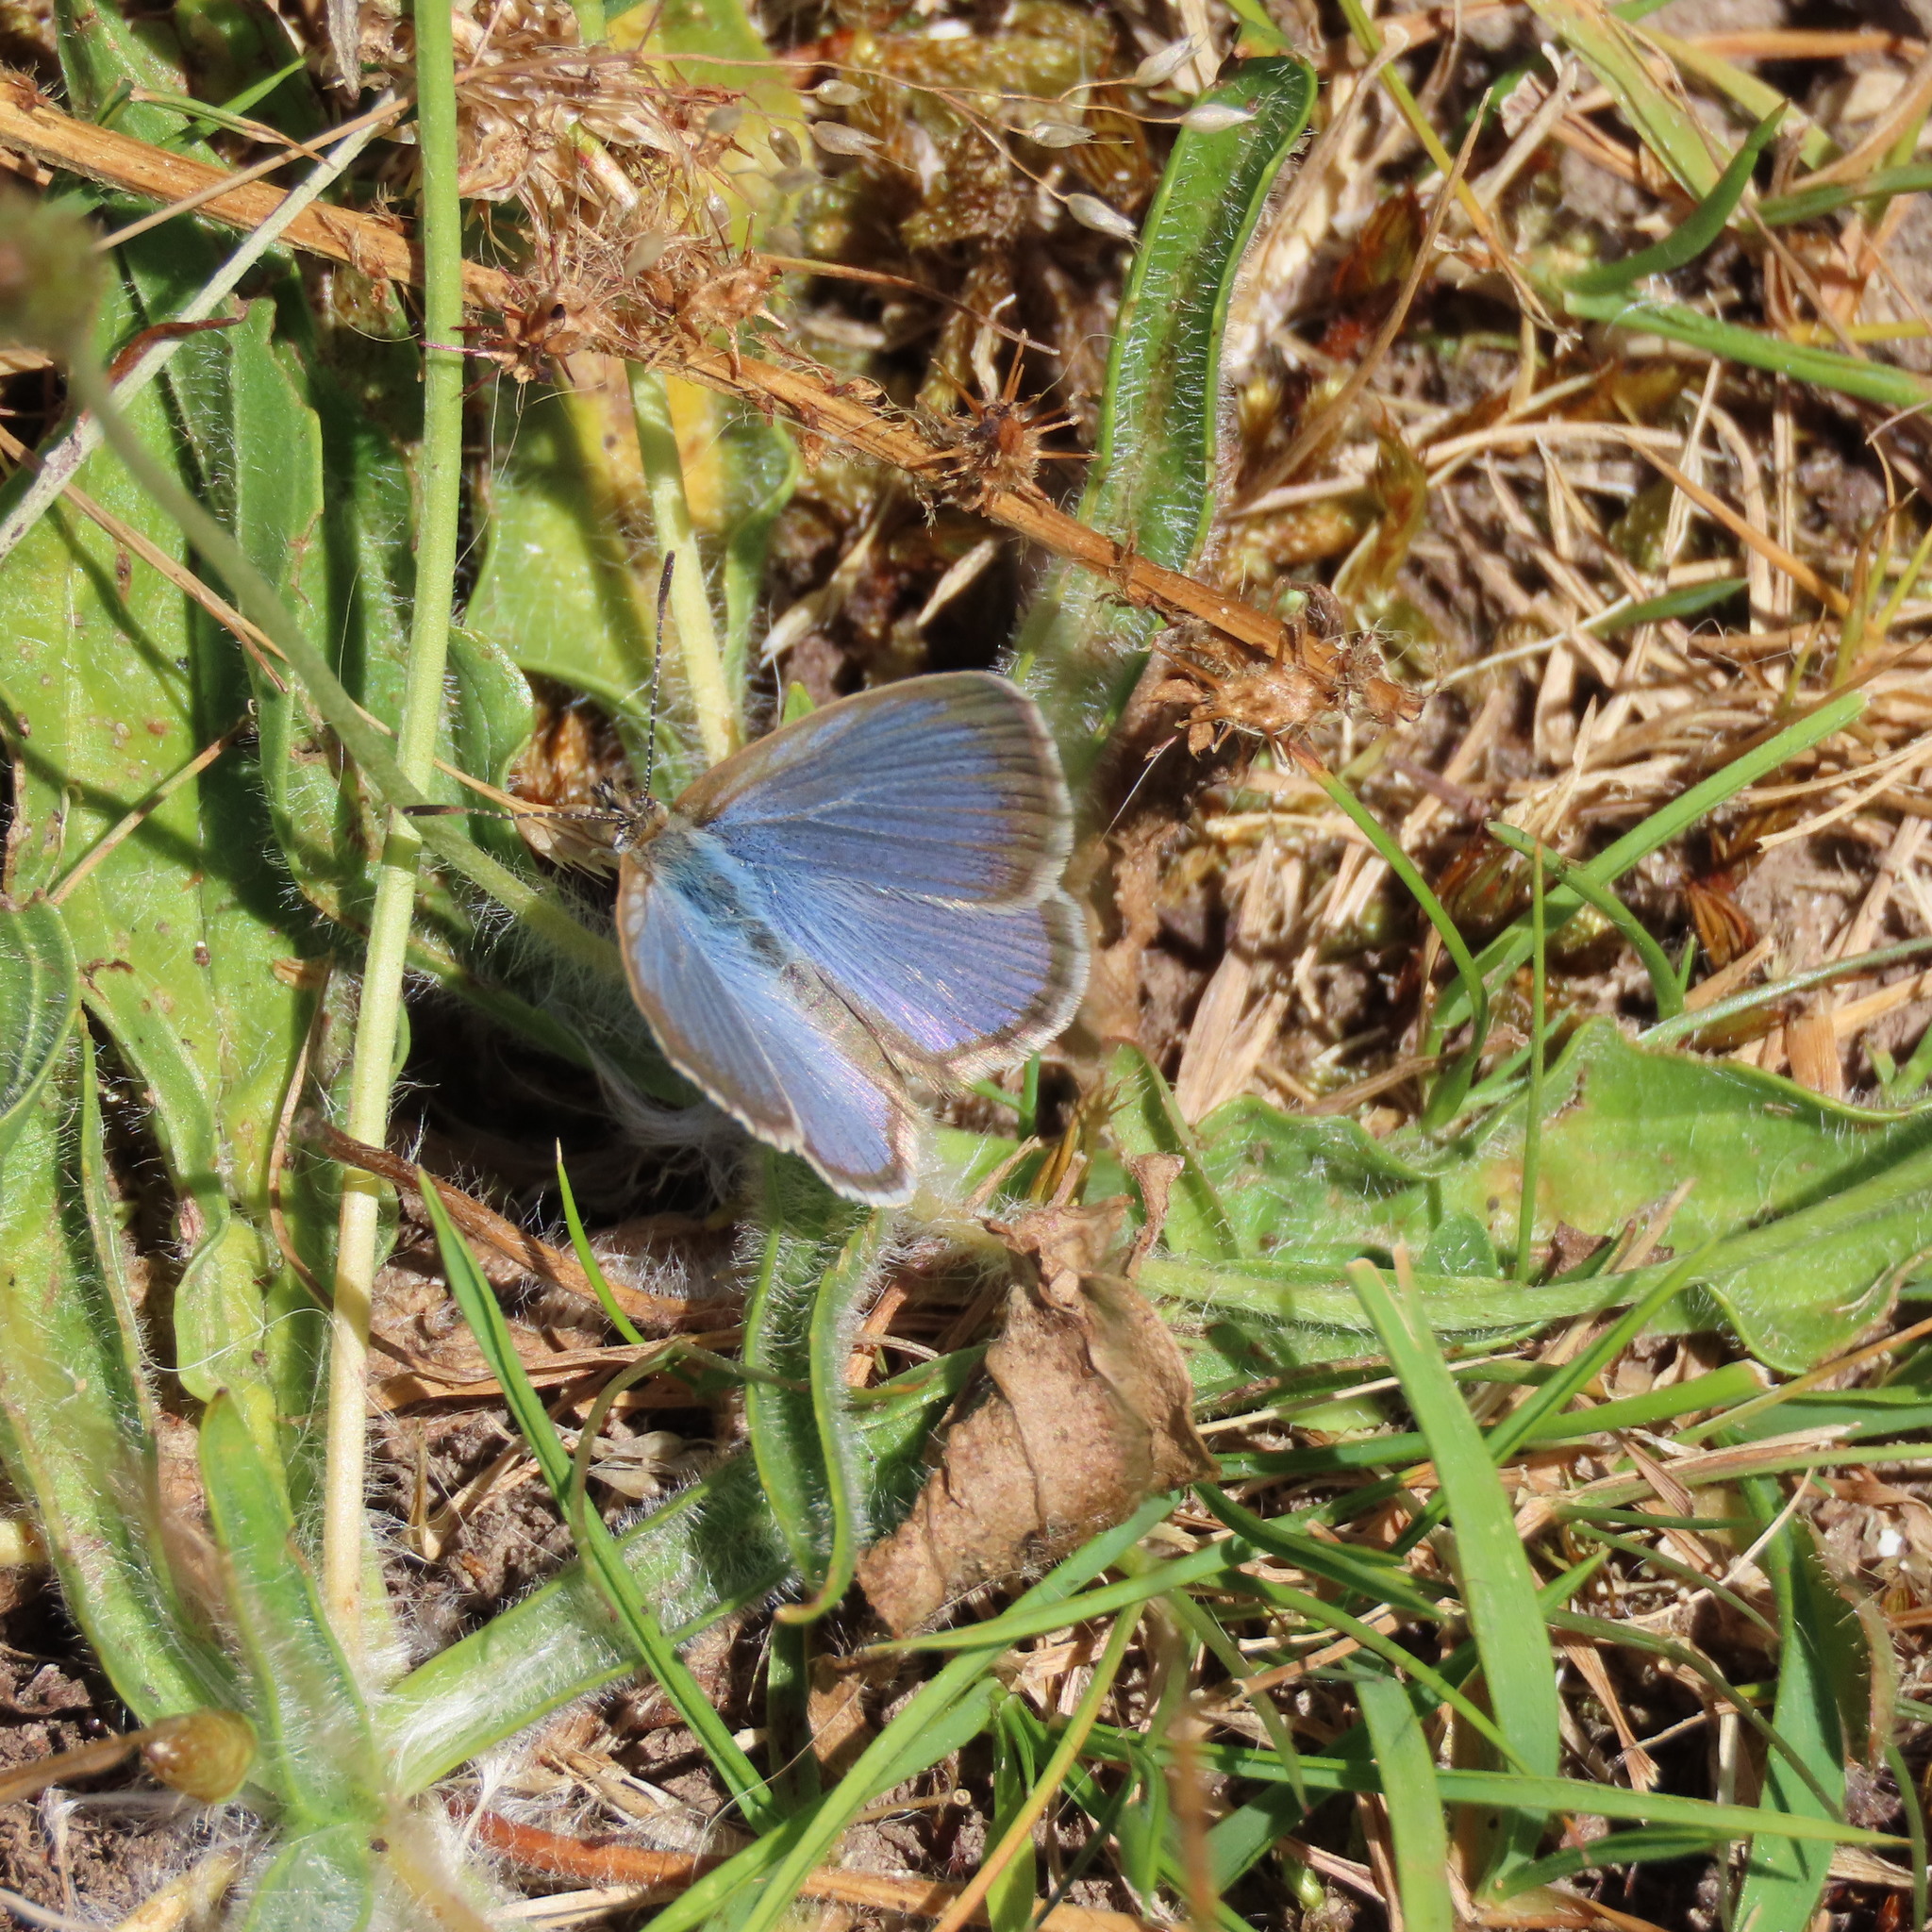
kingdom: Animalia
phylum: Arthropoda
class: Insecta
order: Lepidoptera
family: Lycaenidae
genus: Zizina
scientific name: Zizina otis
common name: Lesser grass blue
